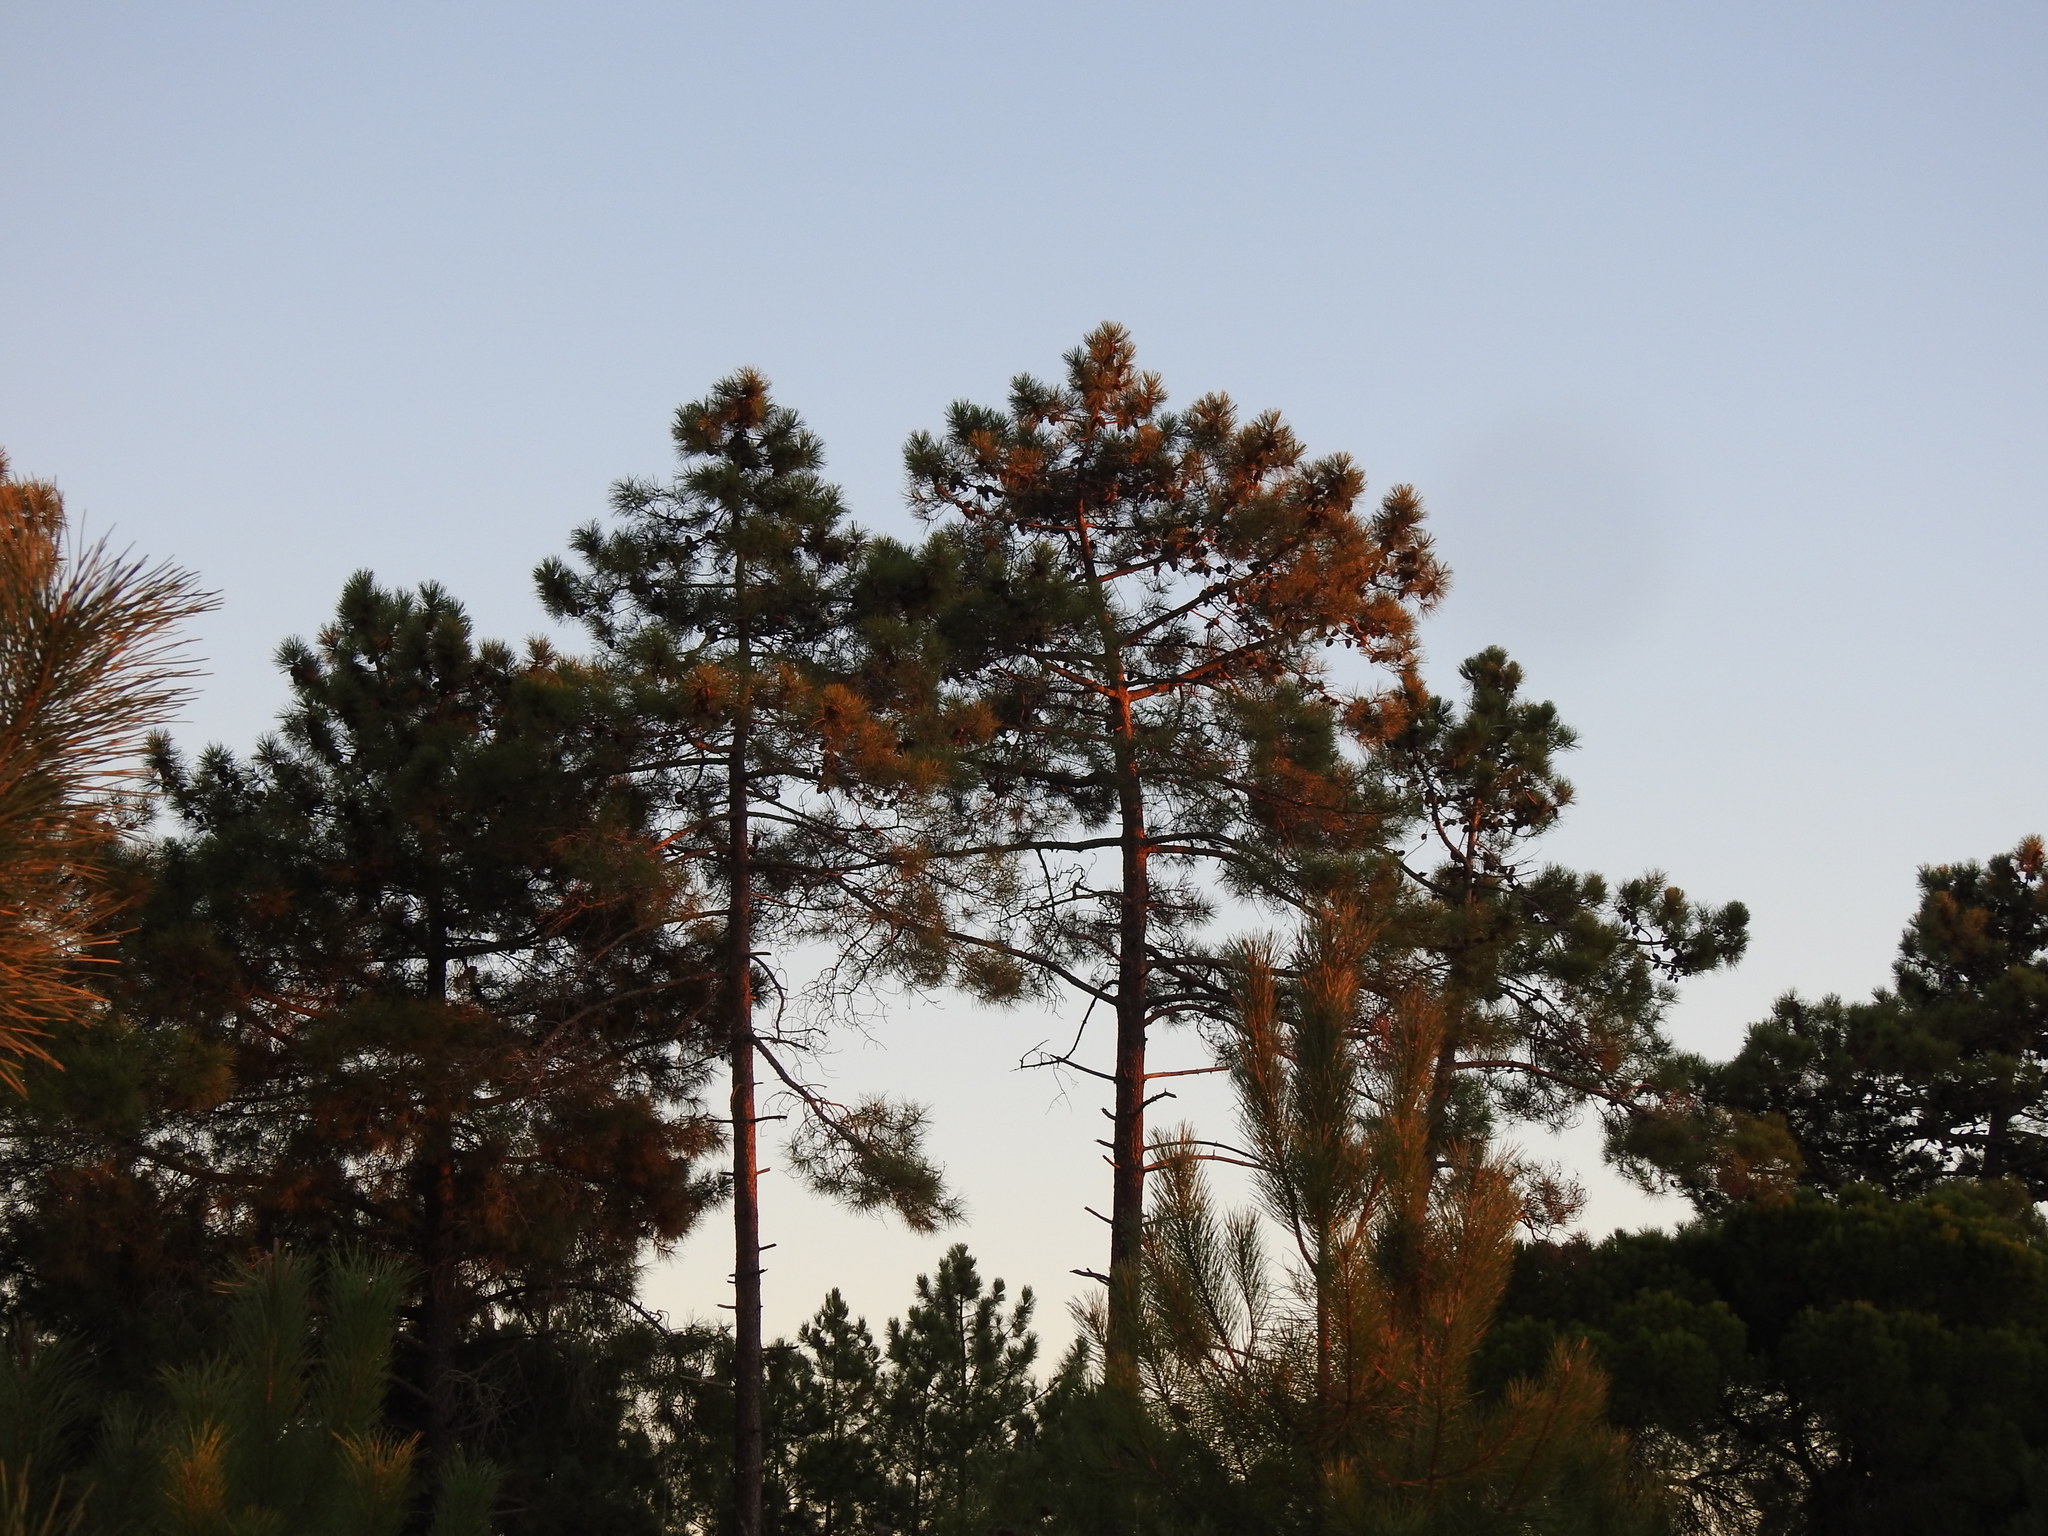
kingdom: Plantae
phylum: Tracheophyta
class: Pinopsida
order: Pinales
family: Pinaceae
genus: Pinus
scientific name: Pinus pinaster
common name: Maritime pine
